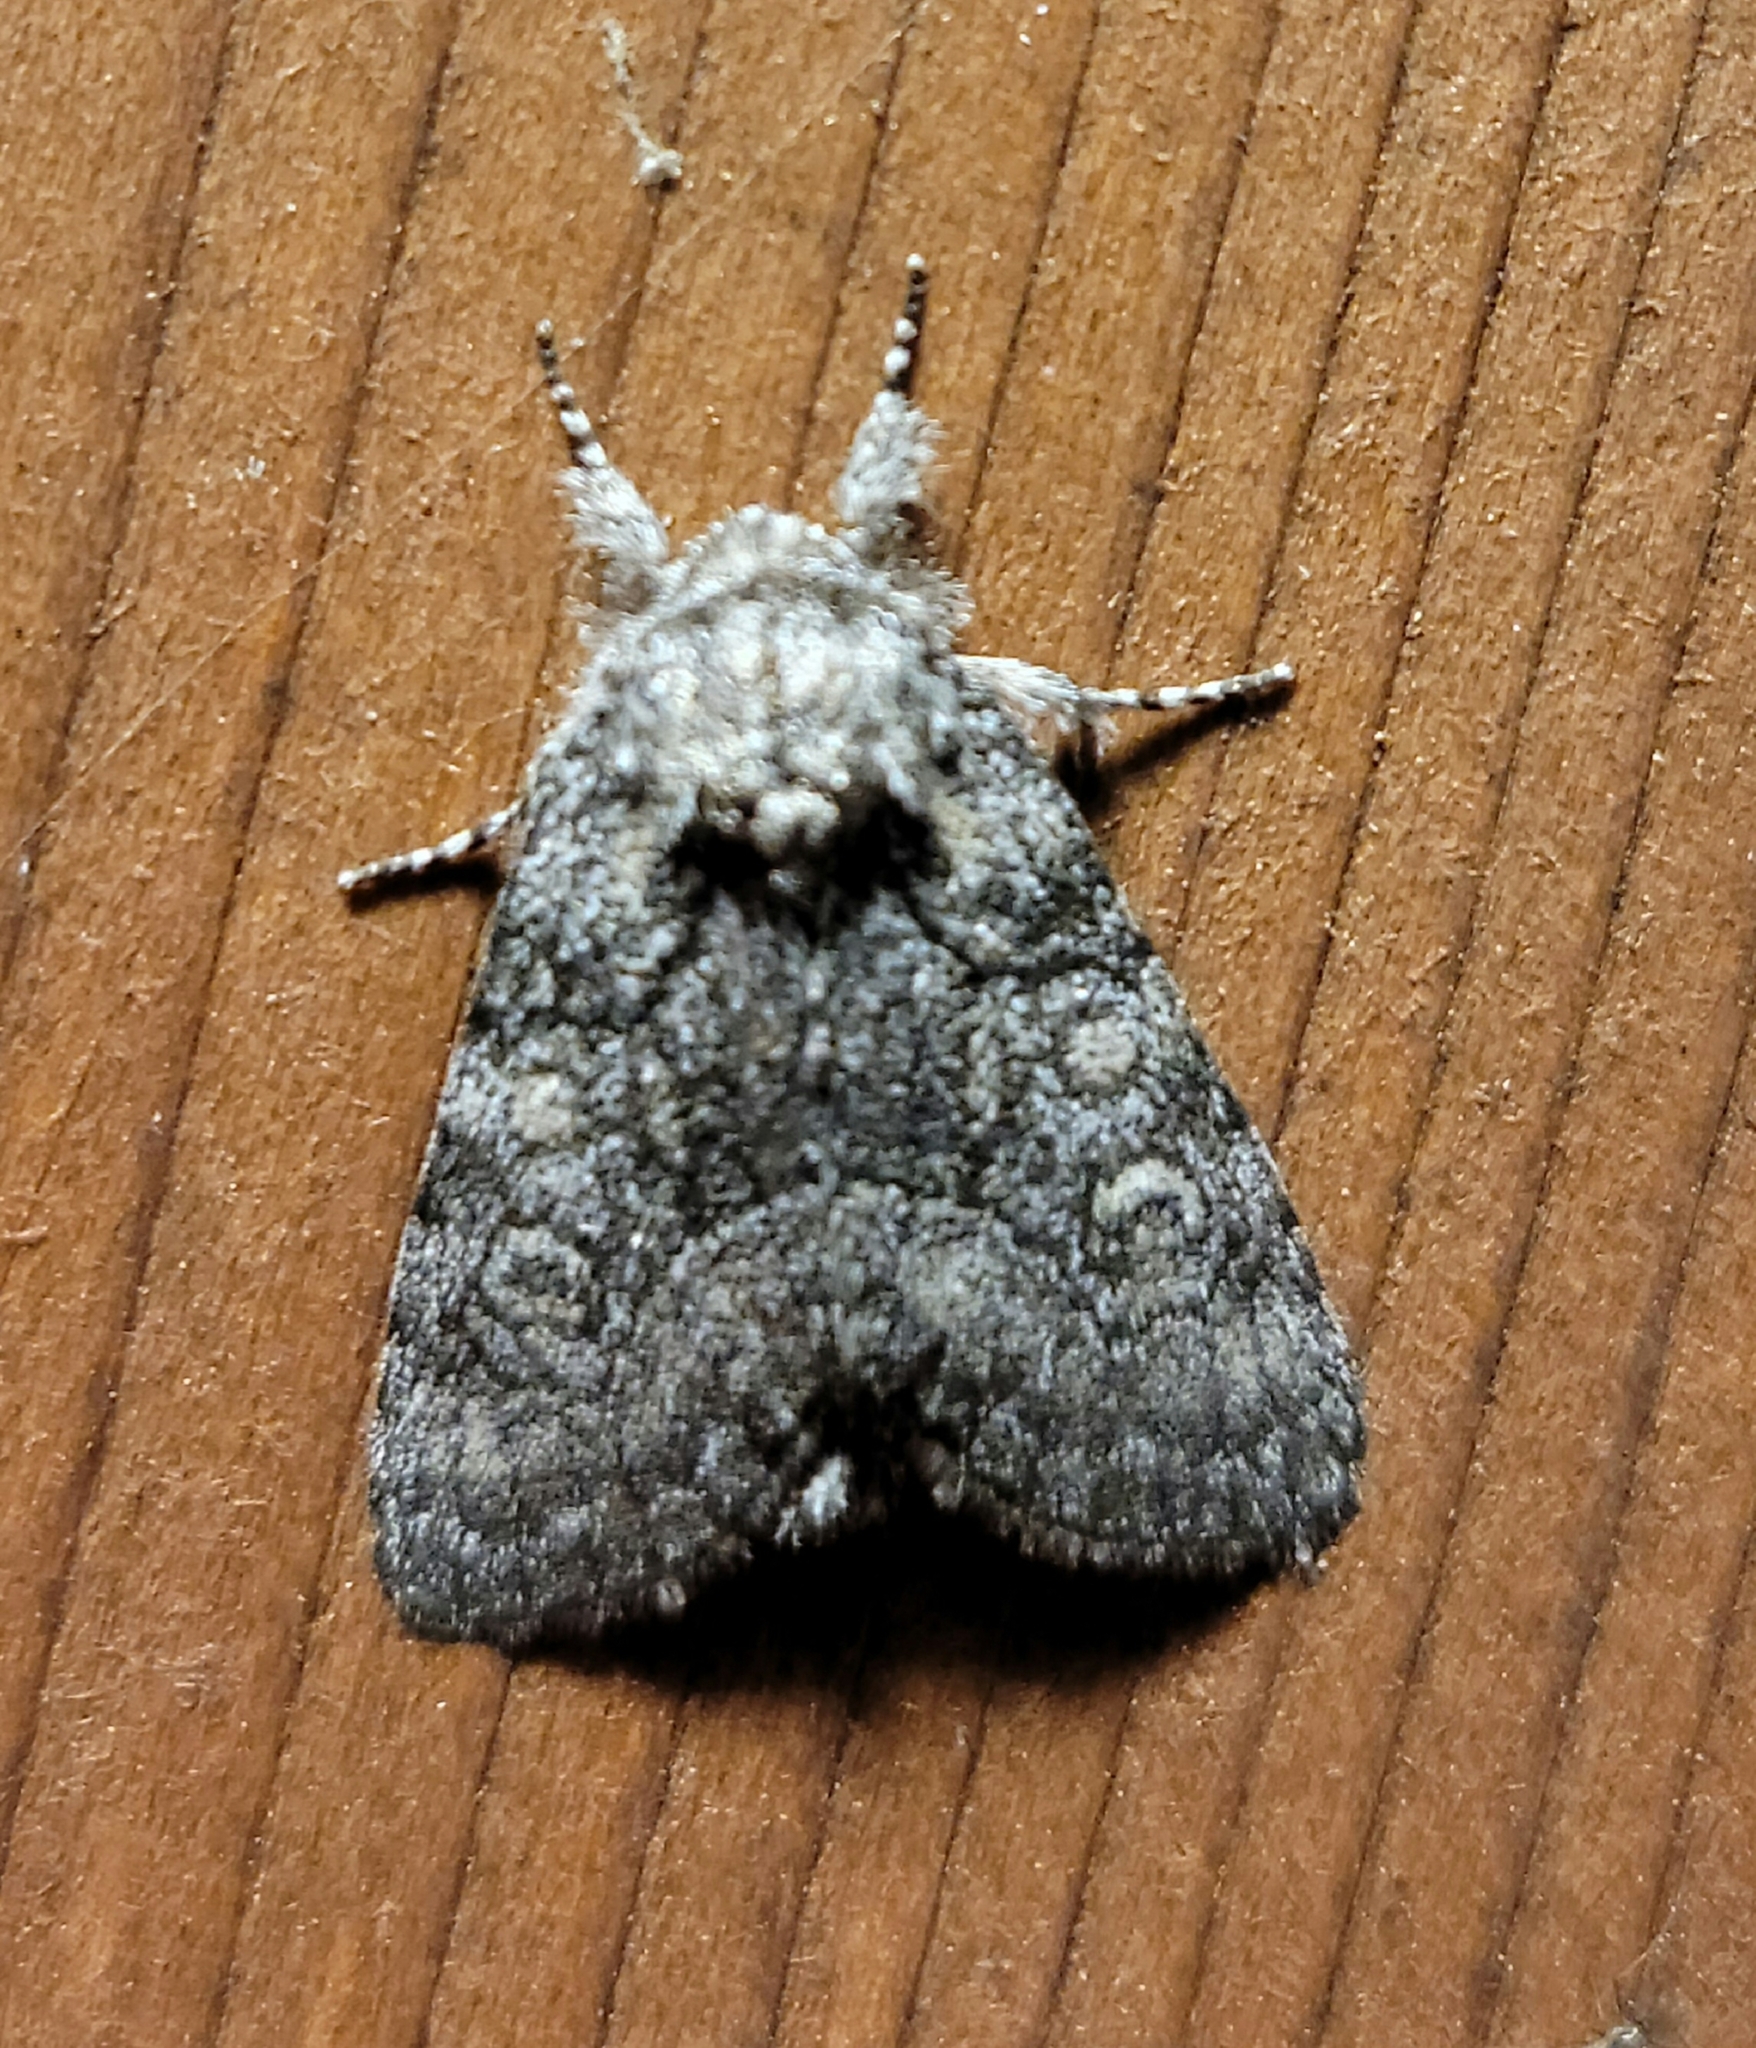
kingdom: Animalia
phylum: Arthropoda
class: Insecta
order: Lepidoptera
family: Noctuidae
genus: Raphia
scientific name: Raphia frater
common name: Brother
